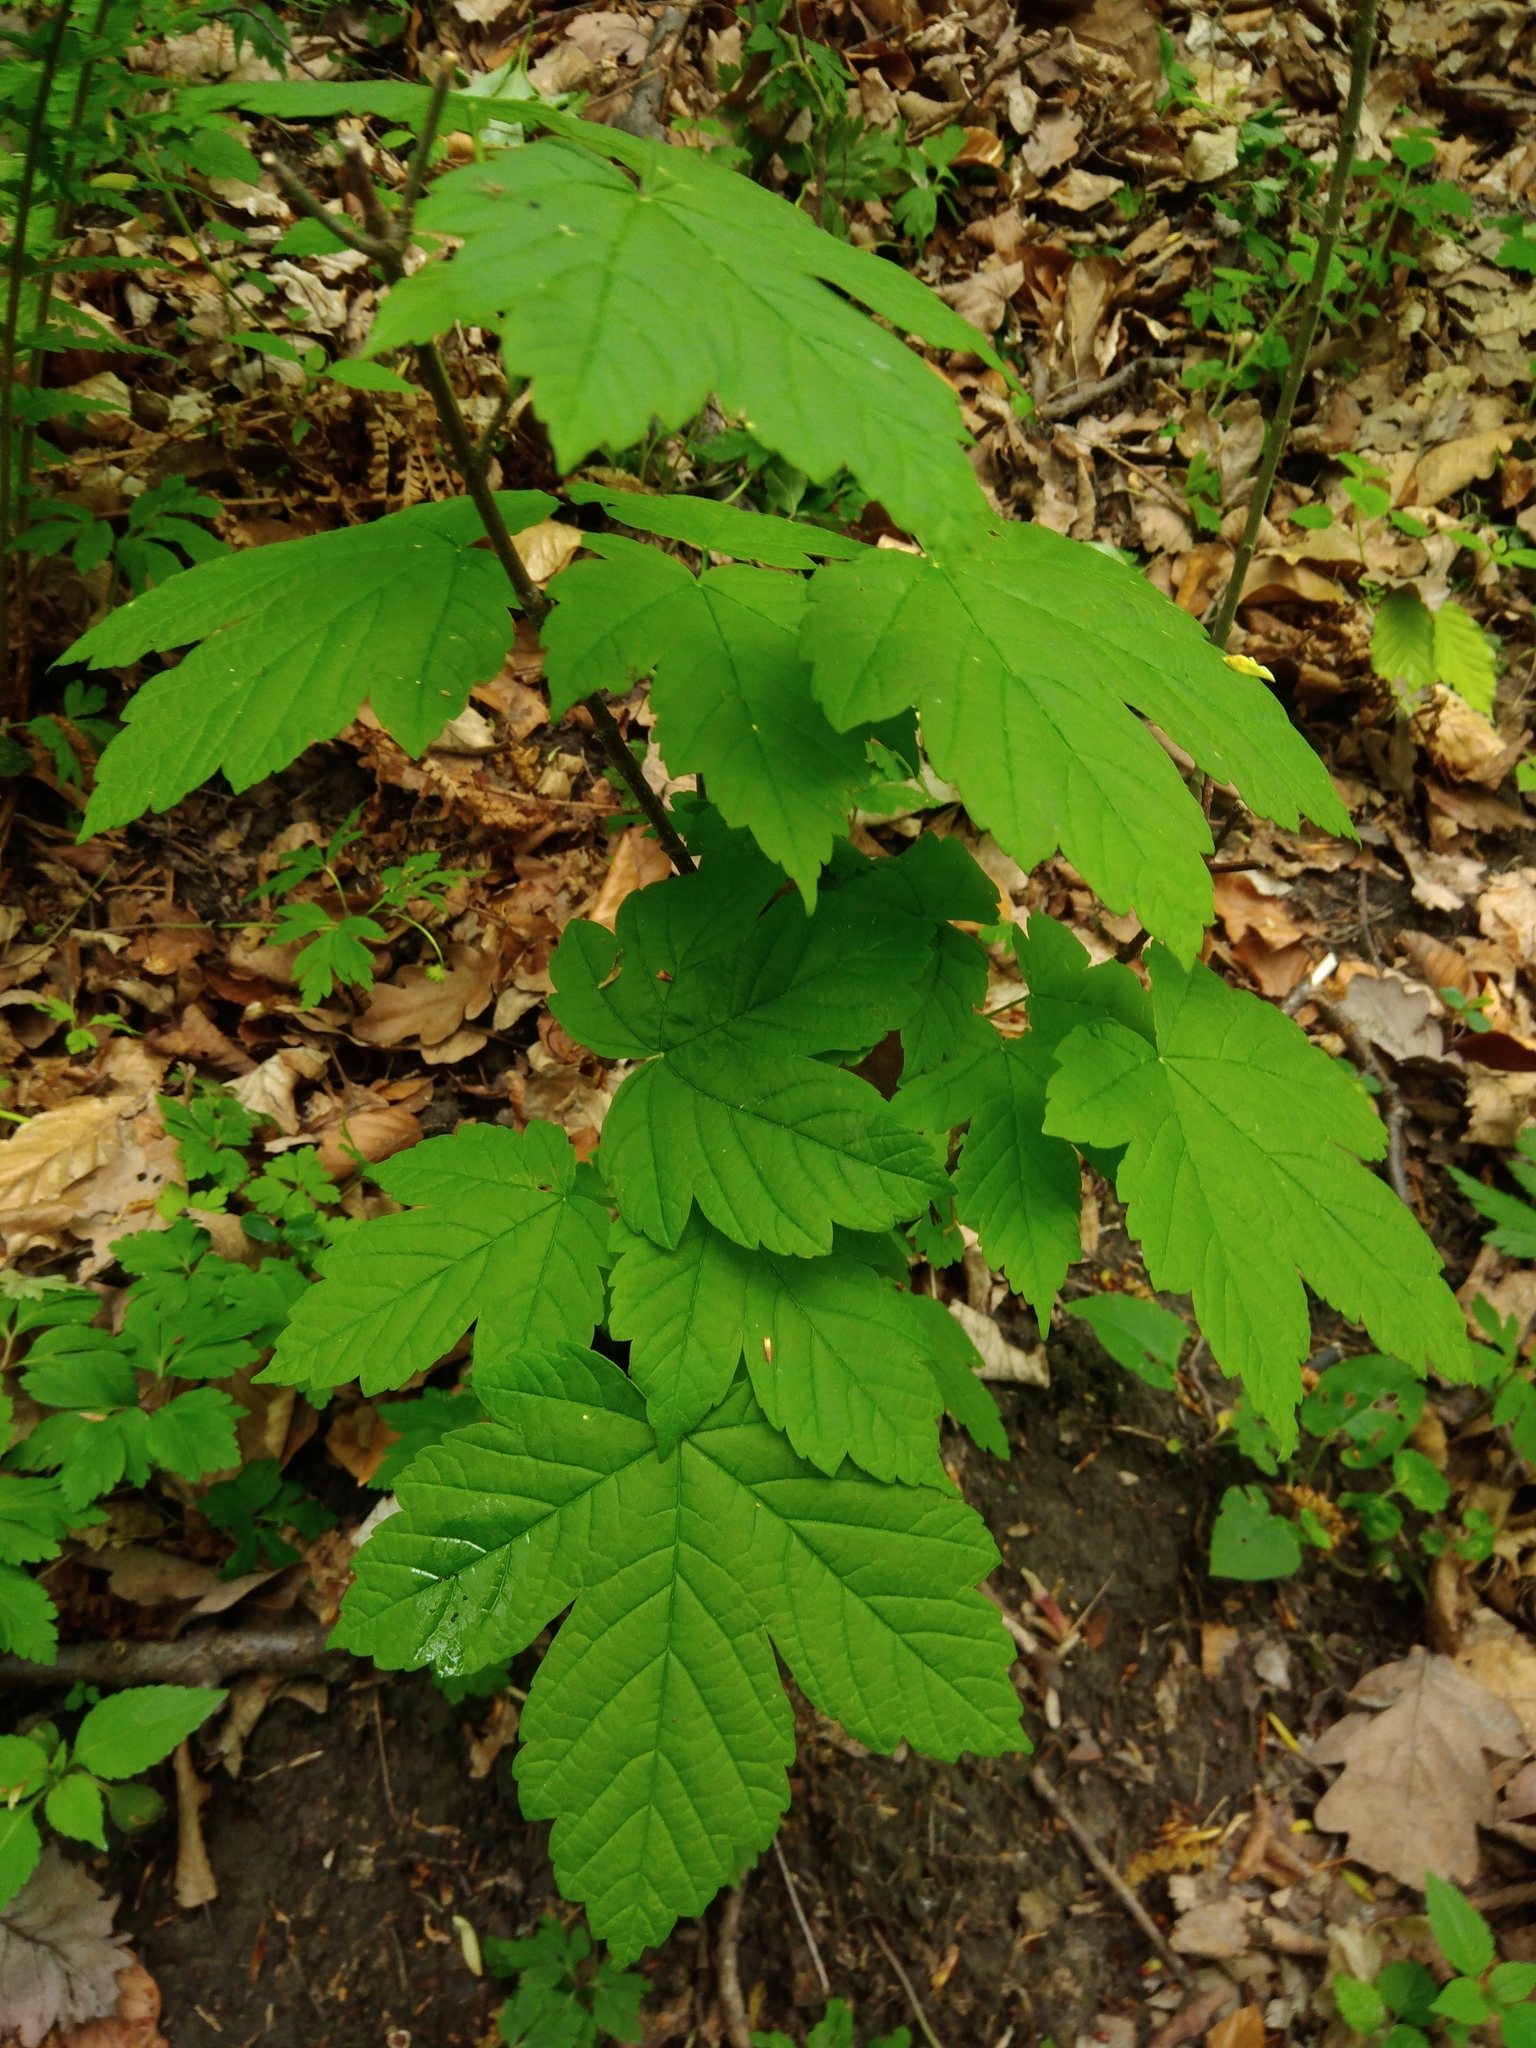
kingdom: Plantae
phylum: Tracheophyta
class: Magnoliopsida
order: Sapindales
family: Sapindaceae
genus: Acer
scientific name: Acer pseudoplatanus
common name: Sycamore
